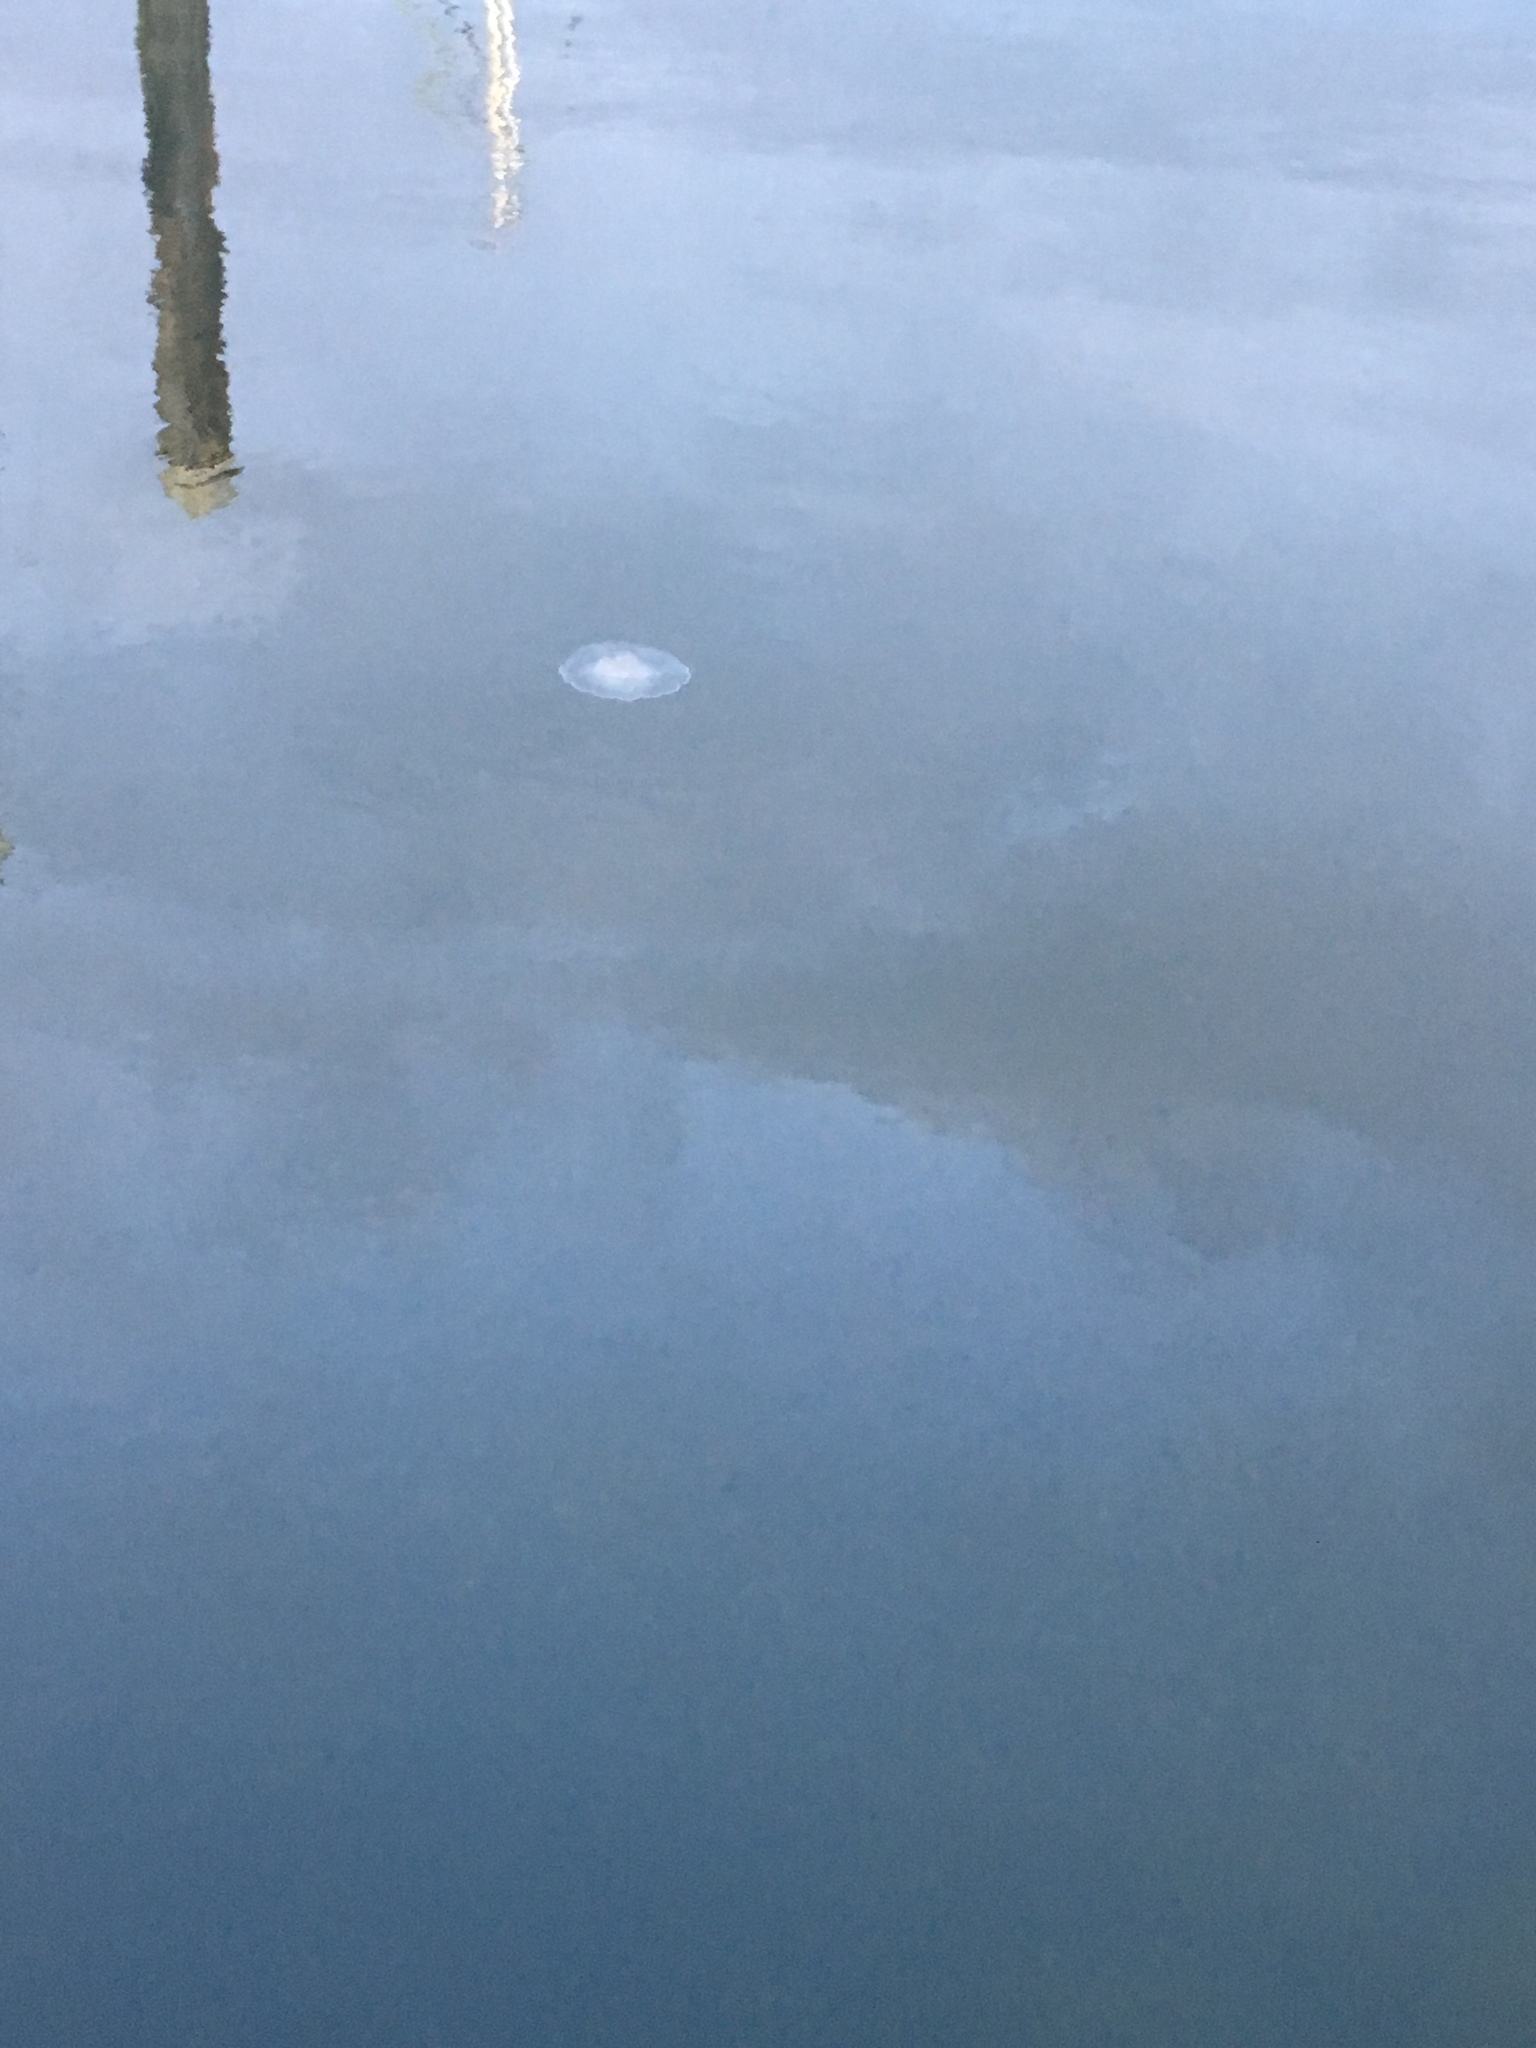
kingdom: Animalia
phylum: Cnidaria
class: Scyphozoa
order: Semaeostomeae
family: Ulmaridae
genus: Aurelia
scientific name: Aurelia labiata
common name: Pacific moon jelly
